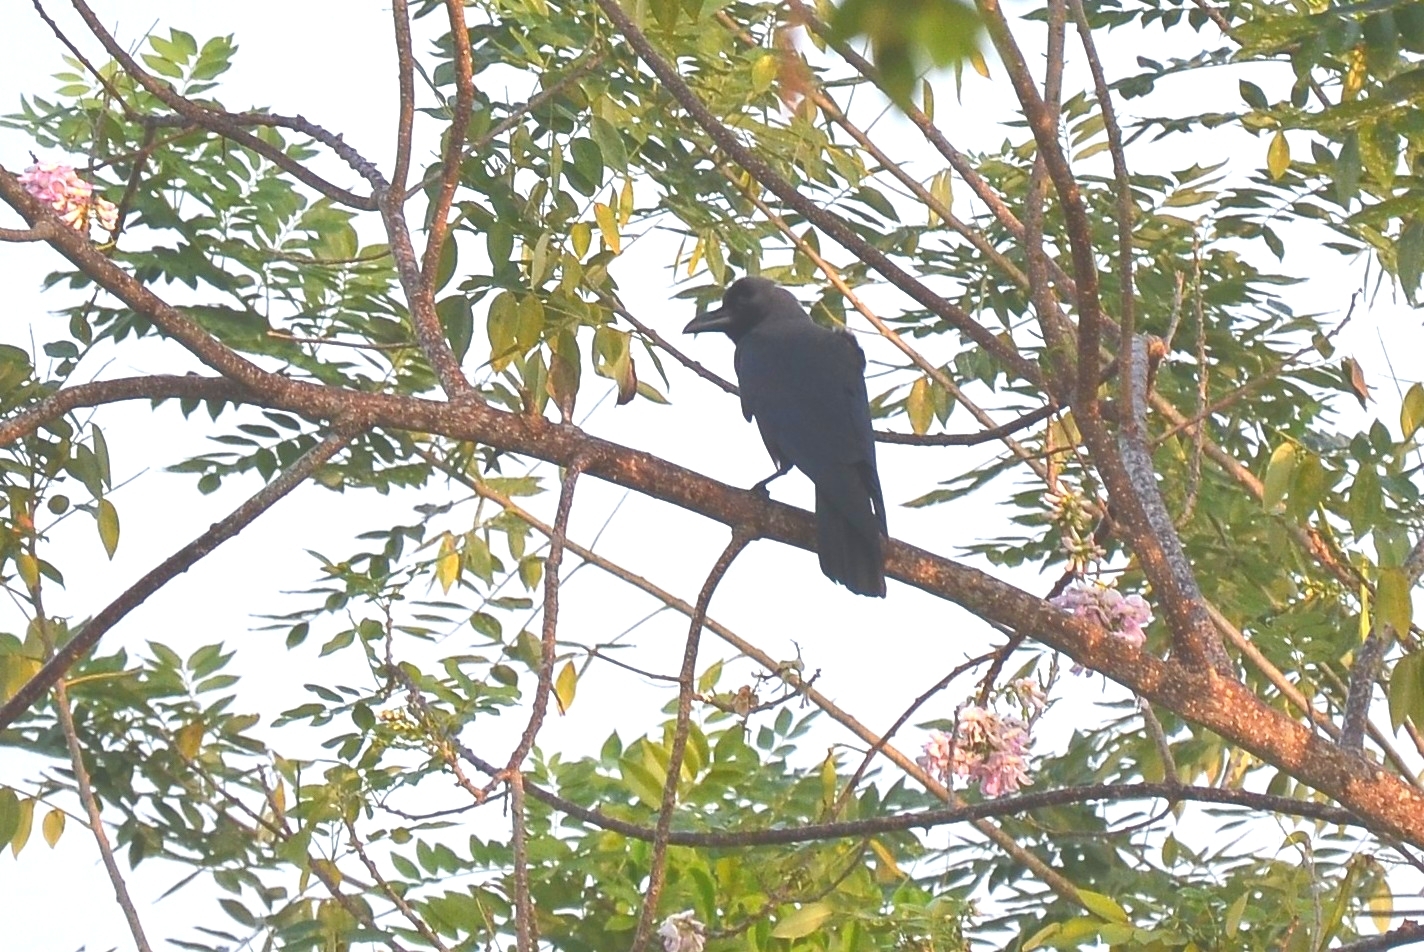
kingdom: Animalia
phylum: Chordata
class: Aves
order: Passeriformes
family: Corvidae
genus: Corvus
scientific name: Corvus splendens
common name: House crow
